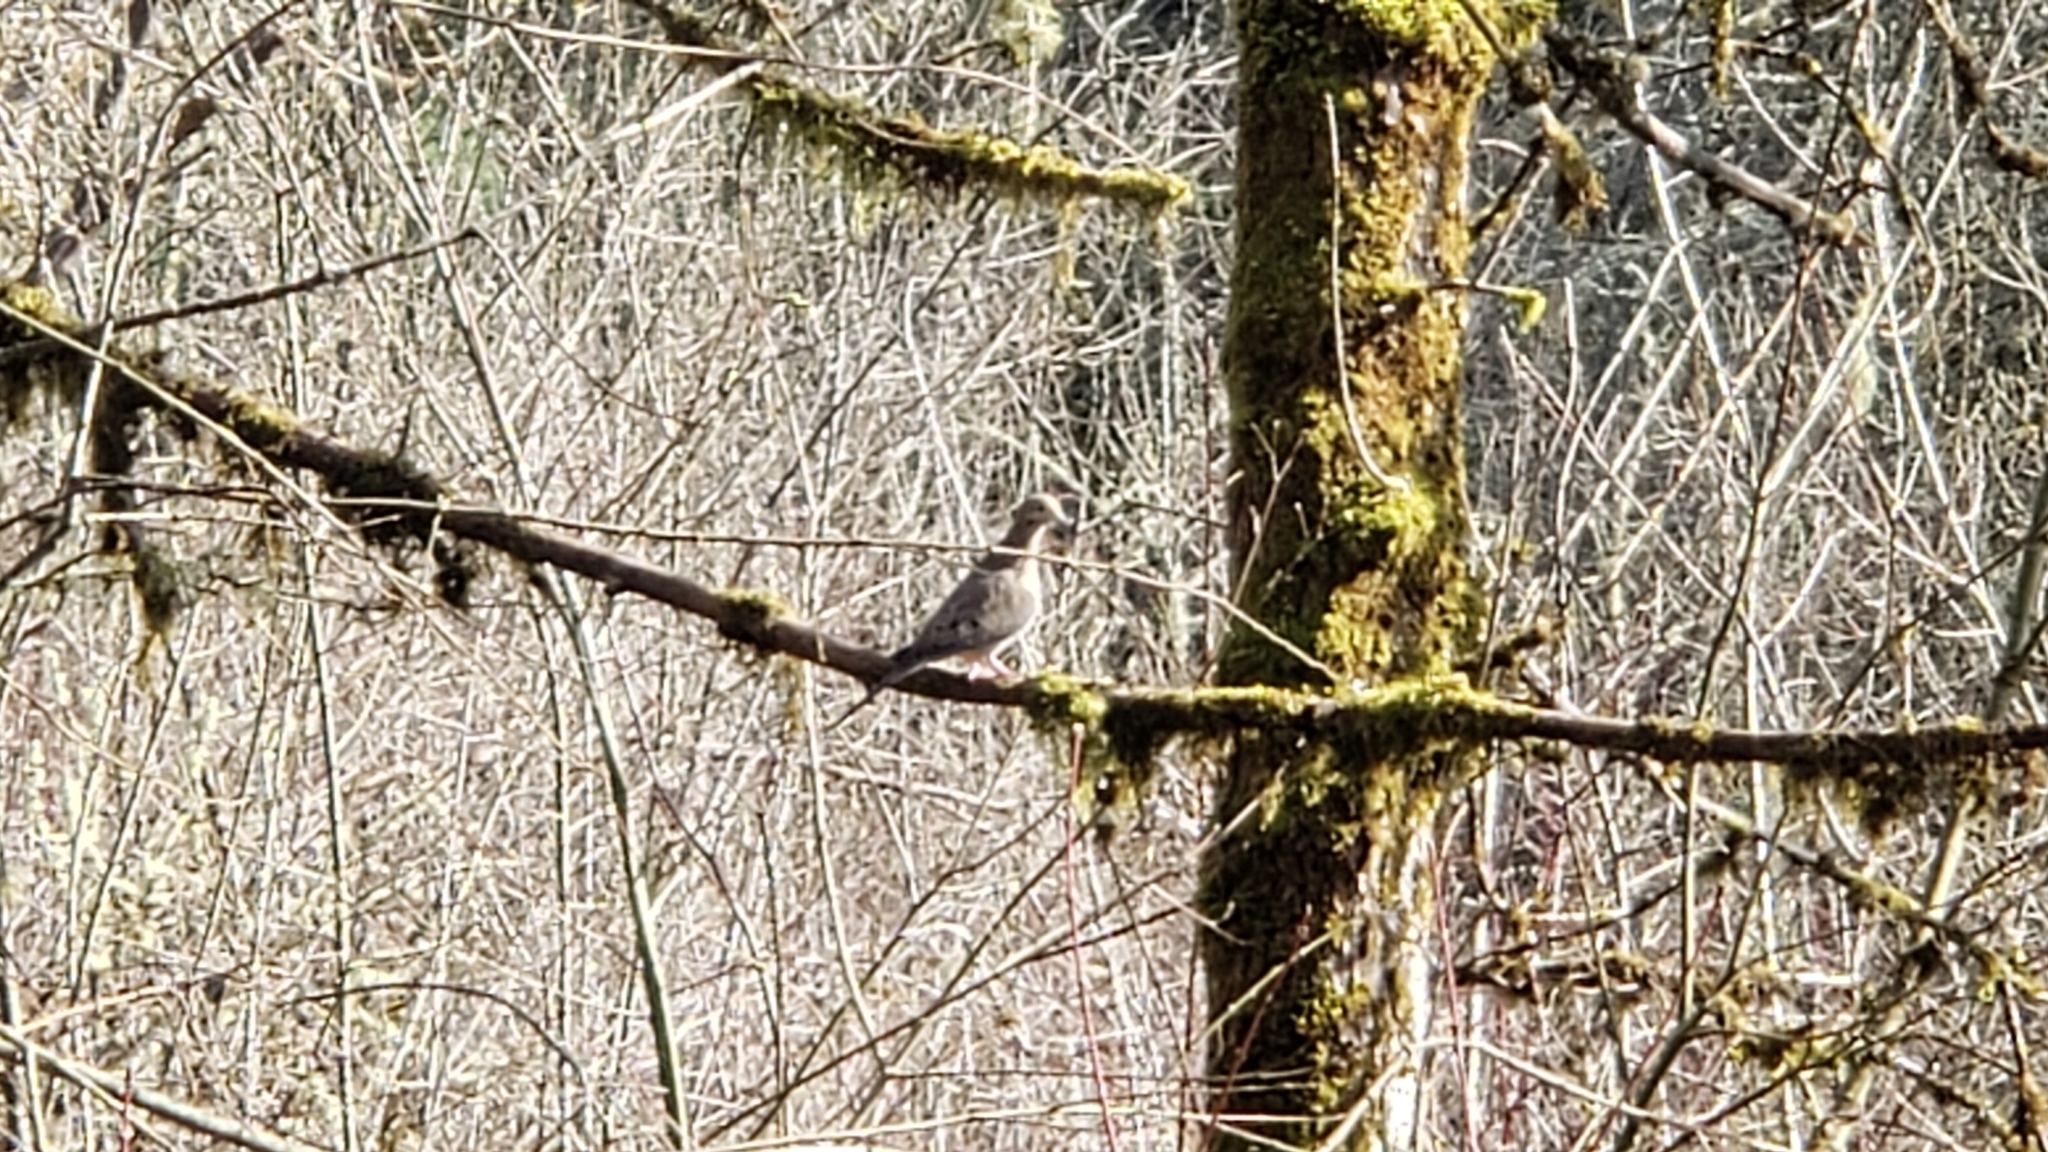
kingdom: Animalia
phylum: Chordata
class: Aves
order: Columbiformes
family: Columbidae
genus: Zenaida
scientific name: Zenaida macroura
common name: Mourning dove
